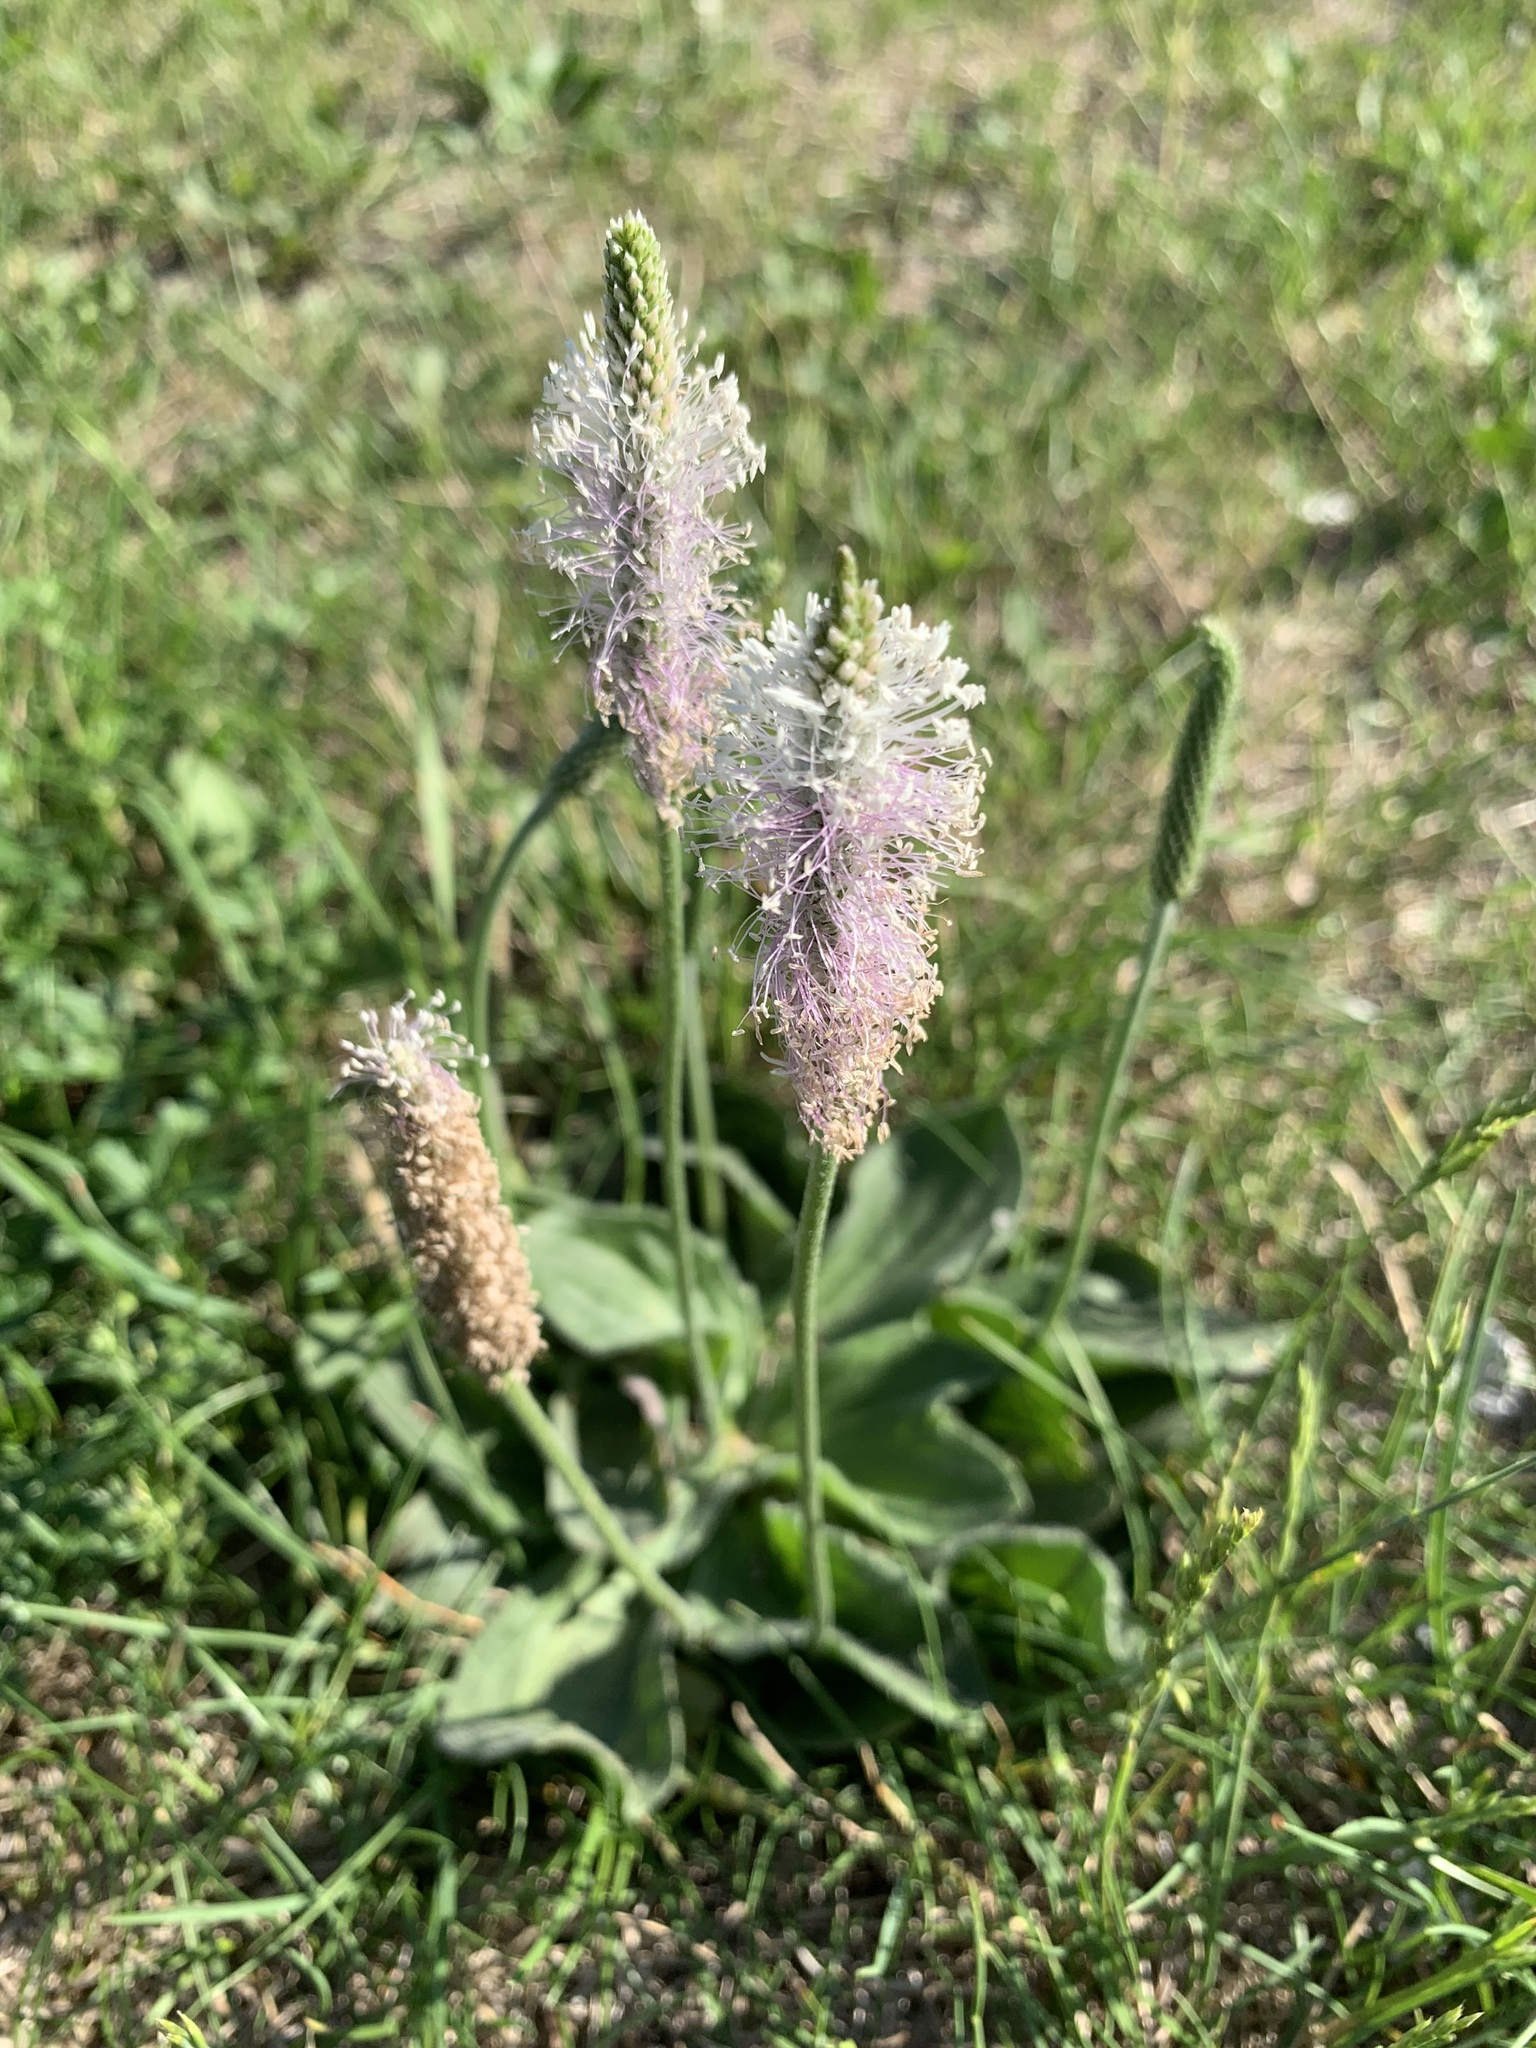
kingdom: Plantae
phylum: Tracheophyta
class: Magnoliopsida
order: Lamiales
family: Plantaginaceae
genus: Plantago
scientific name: Plantago media
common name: Hoary plantain
